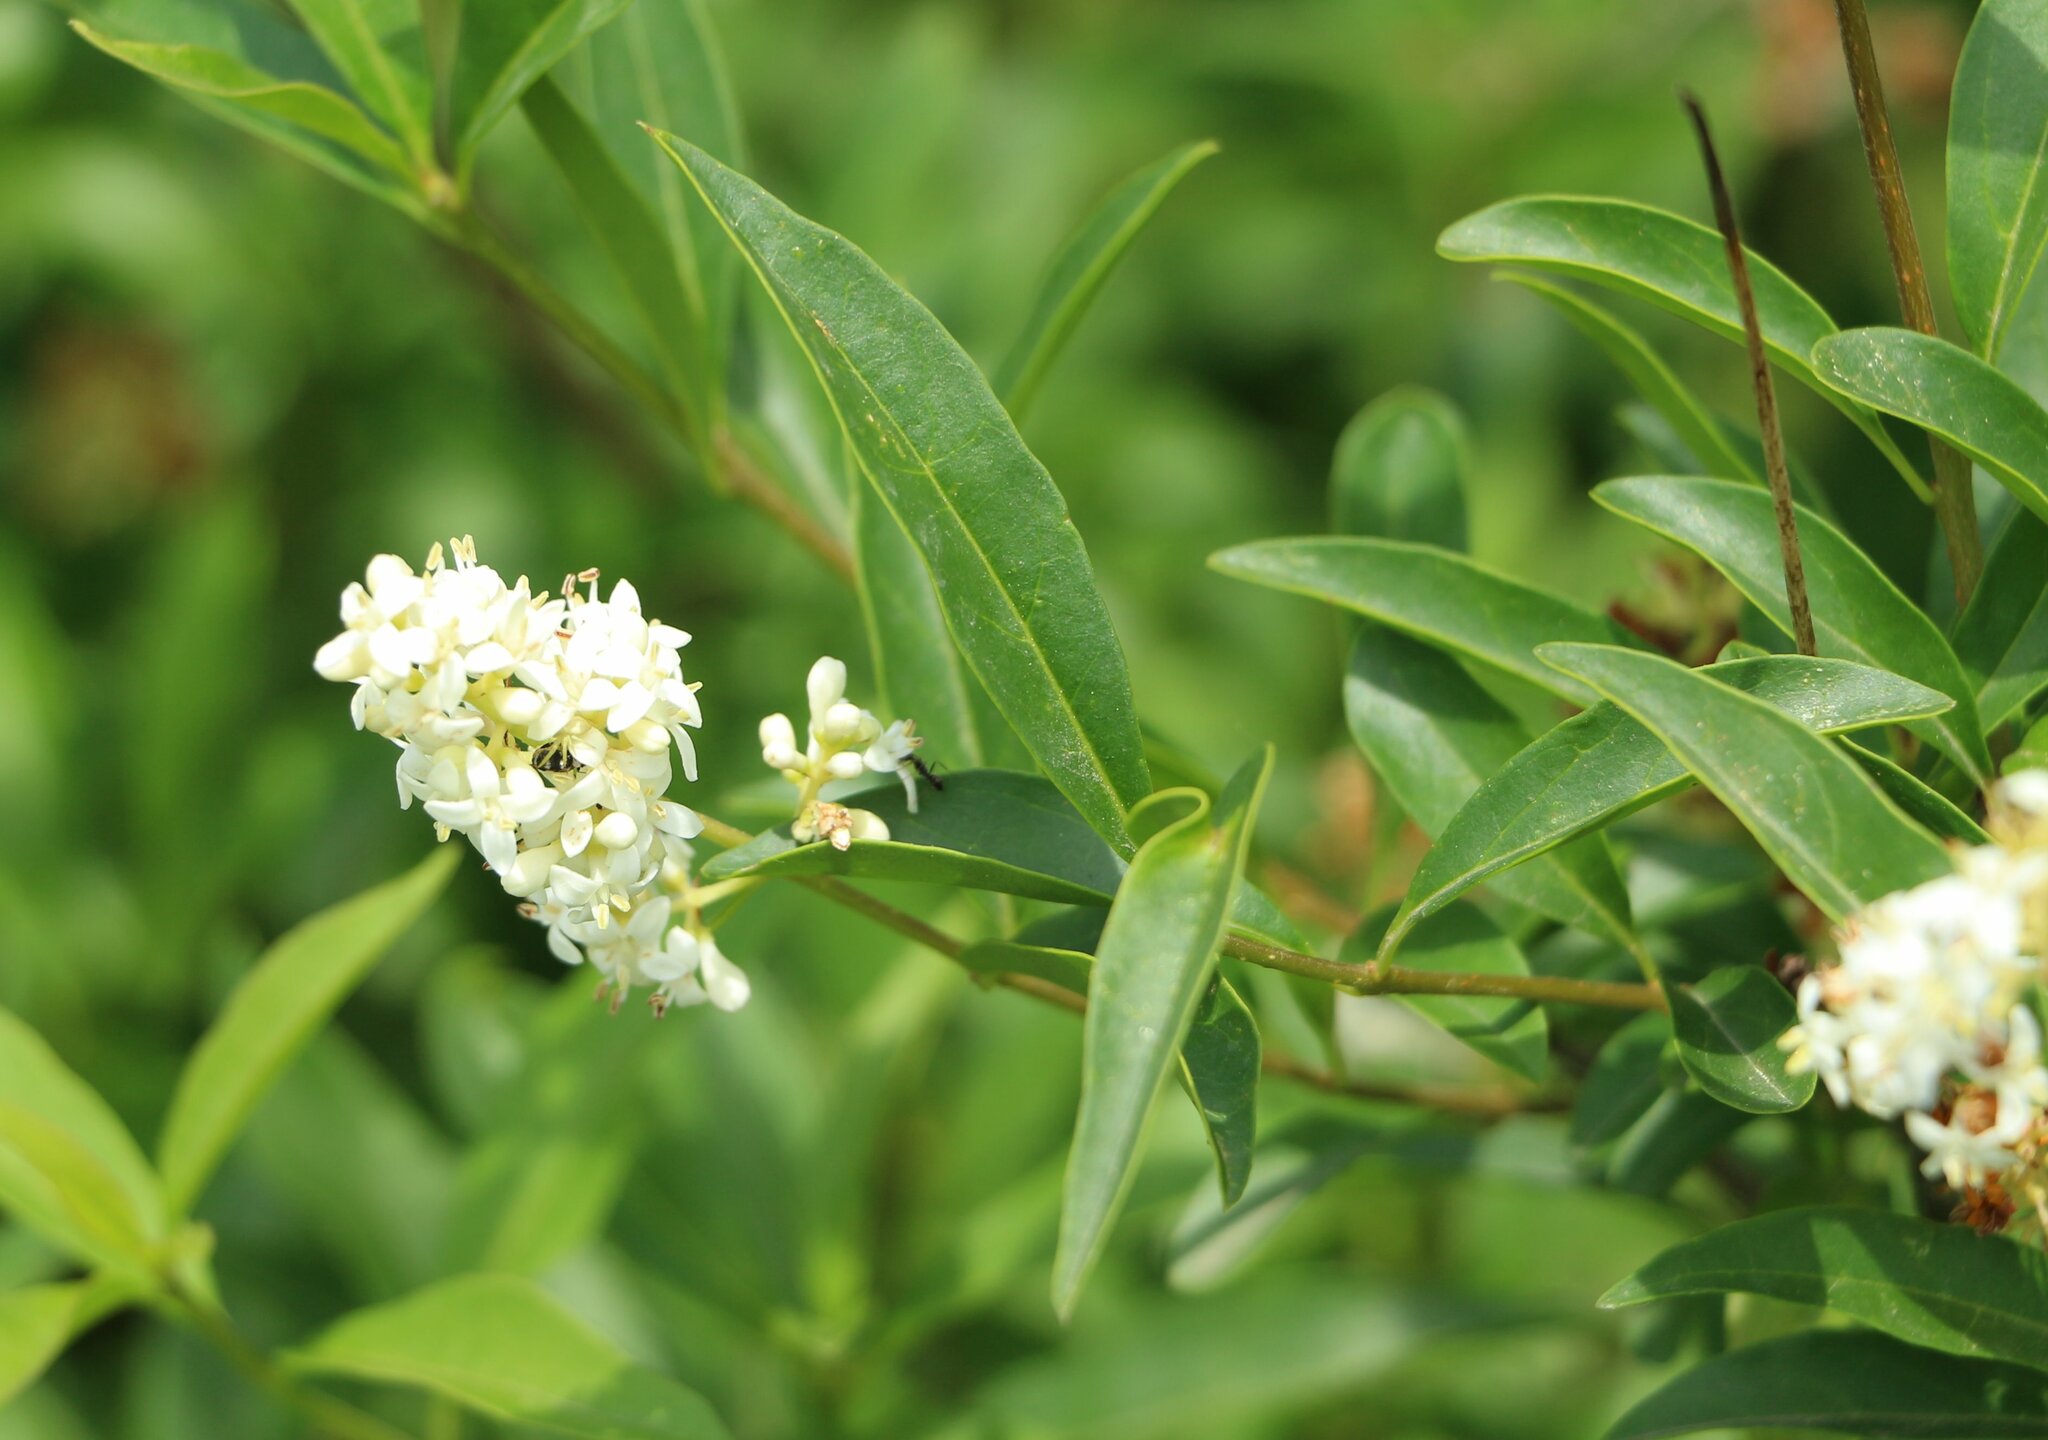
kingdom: Plantae
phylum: Tracheophyta
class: Magnoliopsida
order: Lamiales
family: Oleaceae
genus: Ligustrum
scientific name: Ligustrum vulgare
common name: Wild privet
